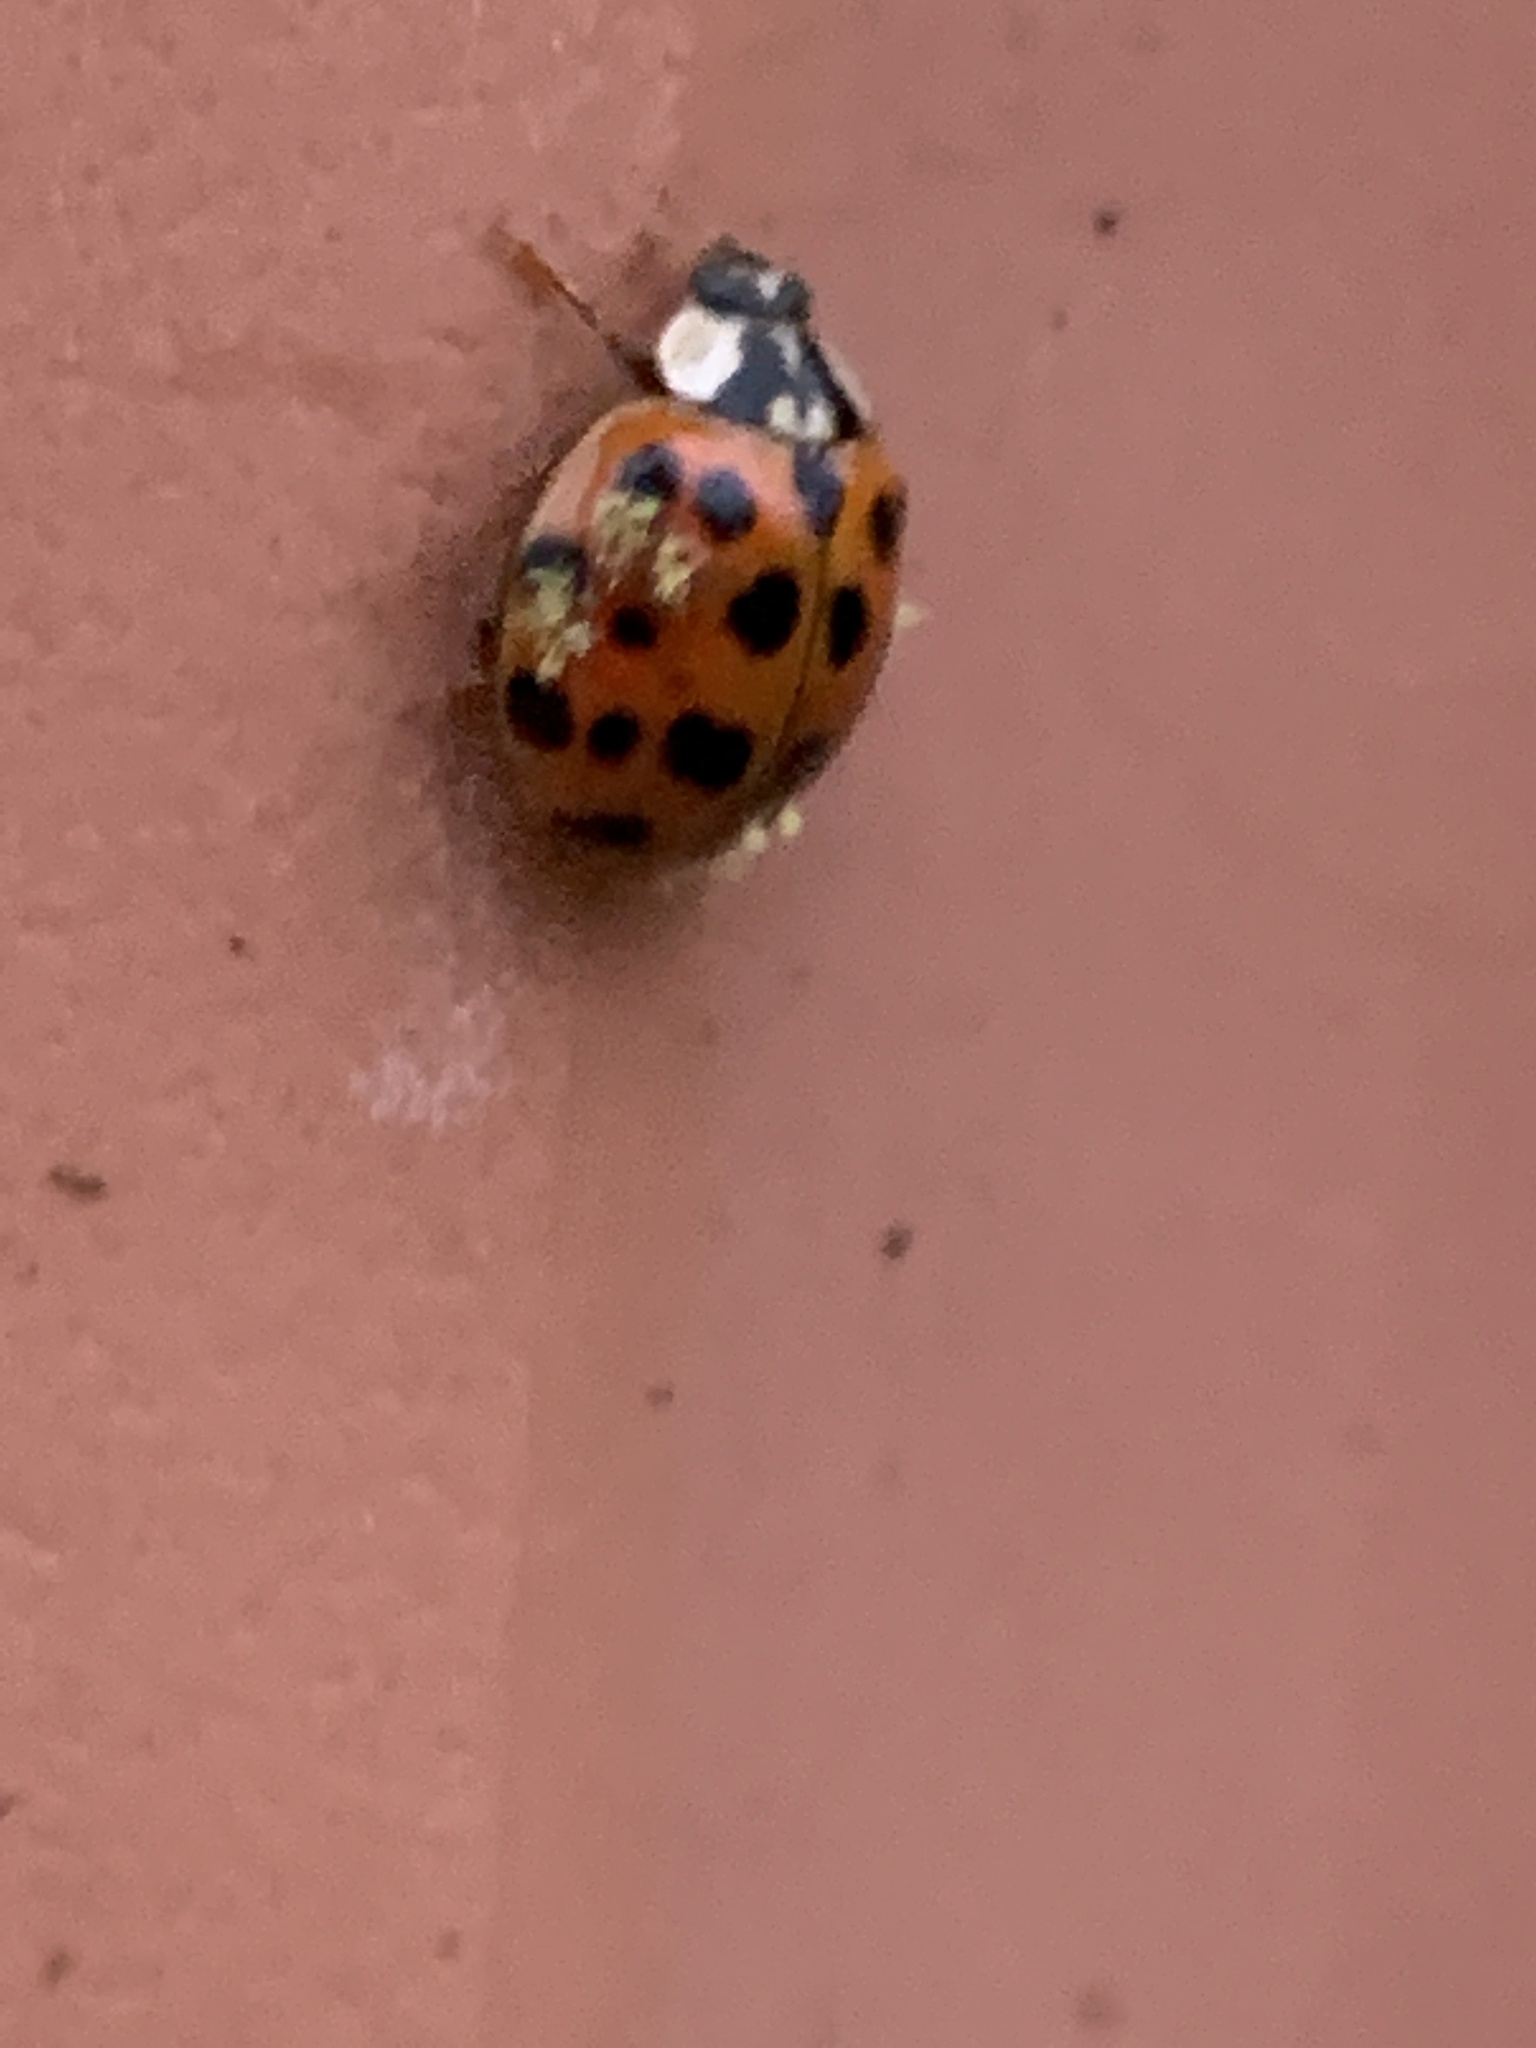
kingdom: Animalia
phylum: Arthropoda
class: Insecta
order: Coleoptera
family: Coccinellidae
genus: Harmonia
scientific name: Harmonia axyridis
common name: Harlequin ladybird
